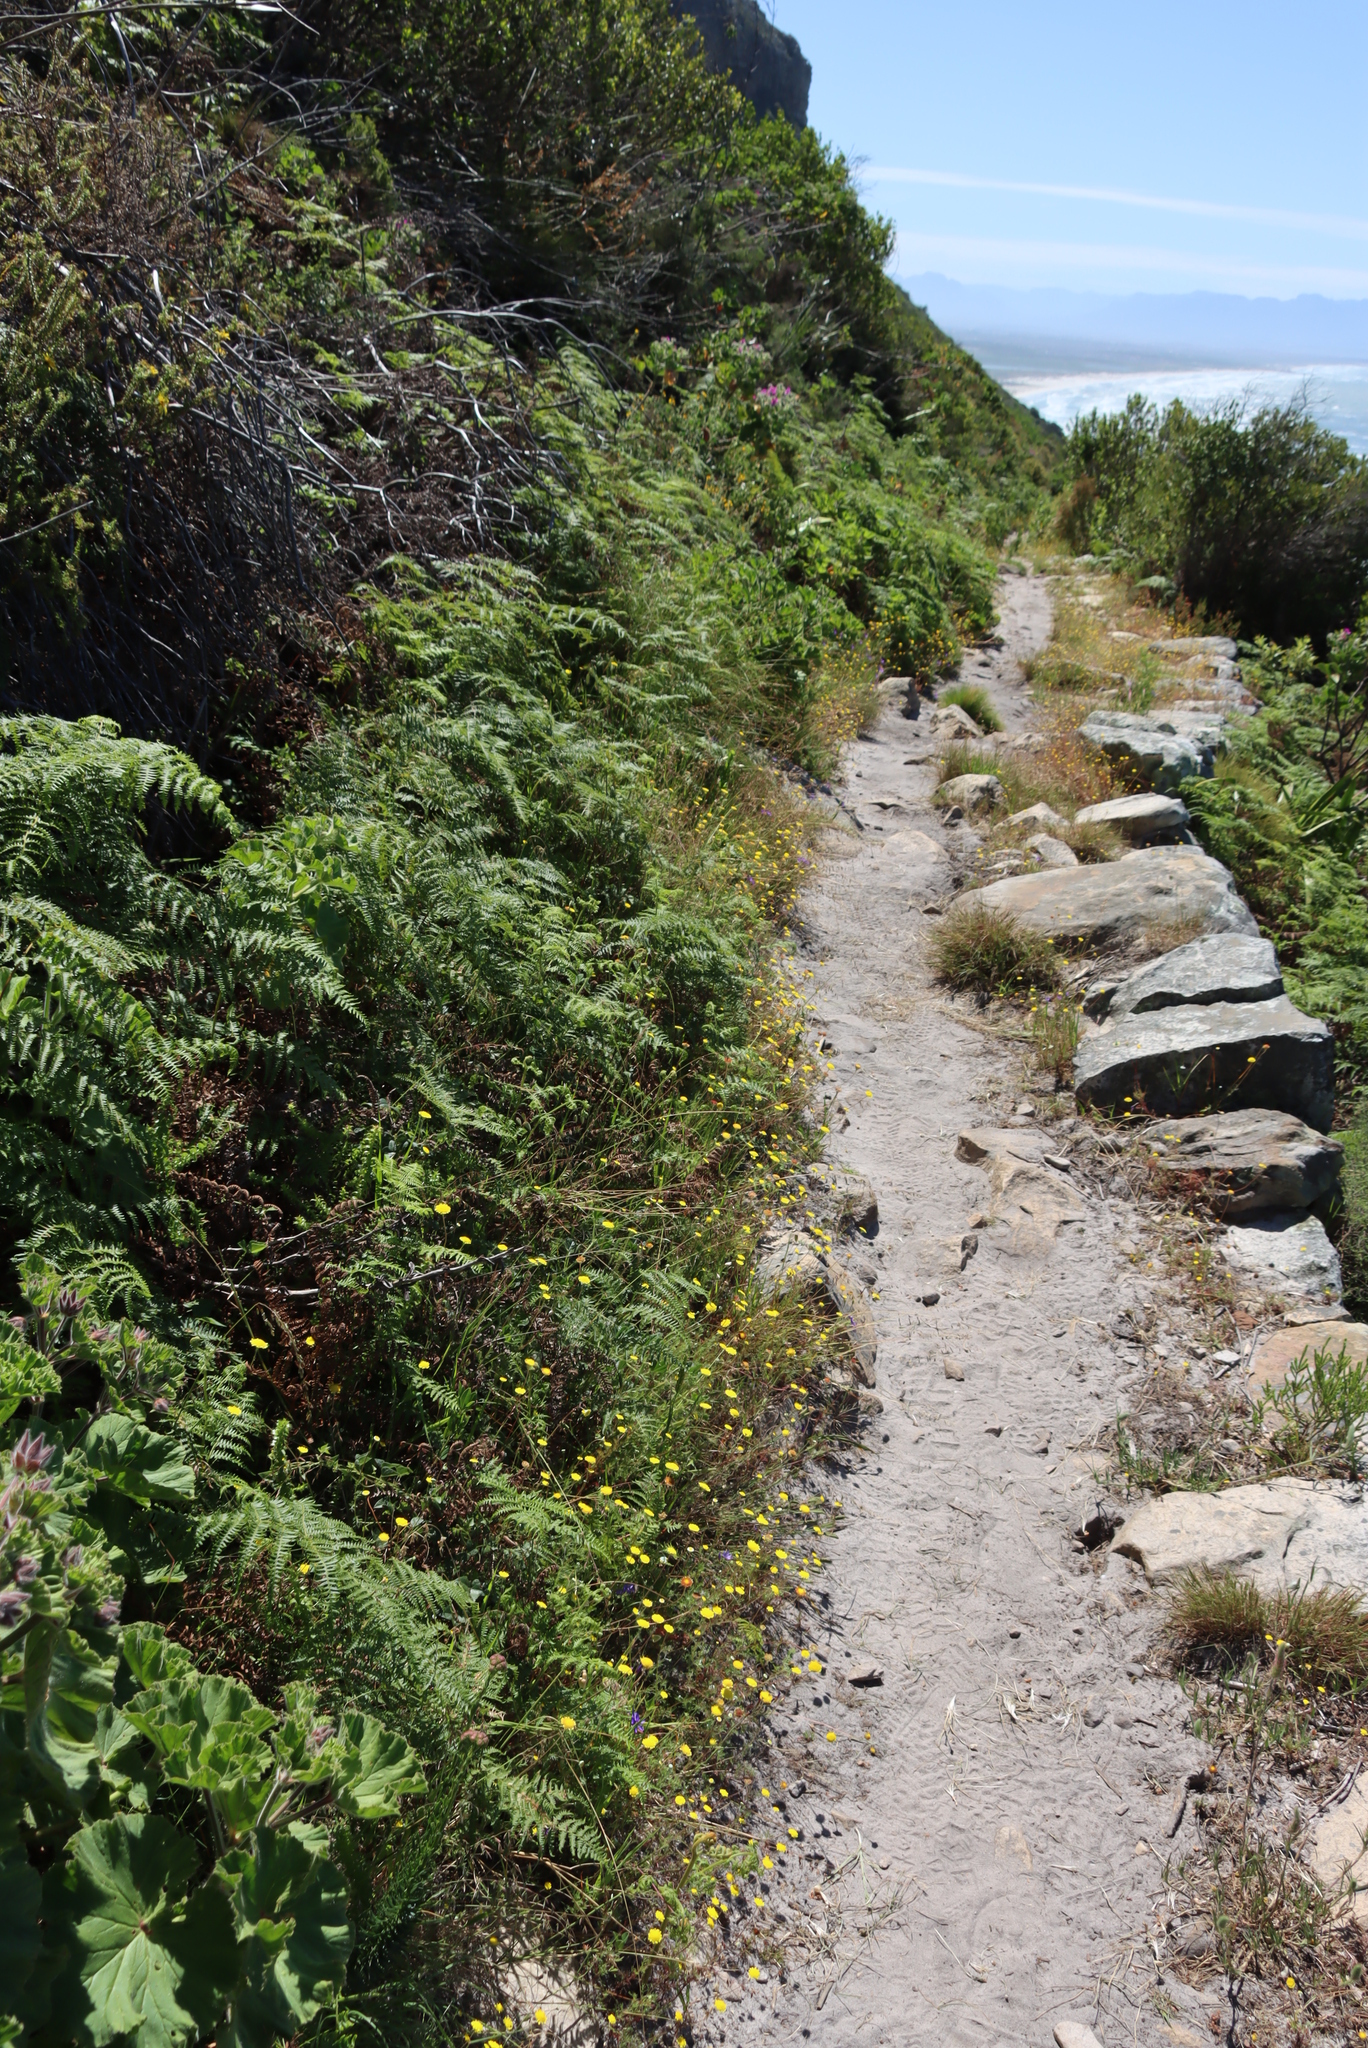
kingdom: Plantae
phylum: Tracheophyta
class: Polypodiopsida
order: Polypodiales
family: Dennstaedtiaceae
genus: Pteridium
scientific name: Pteridium aquilinum
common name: Bracken
